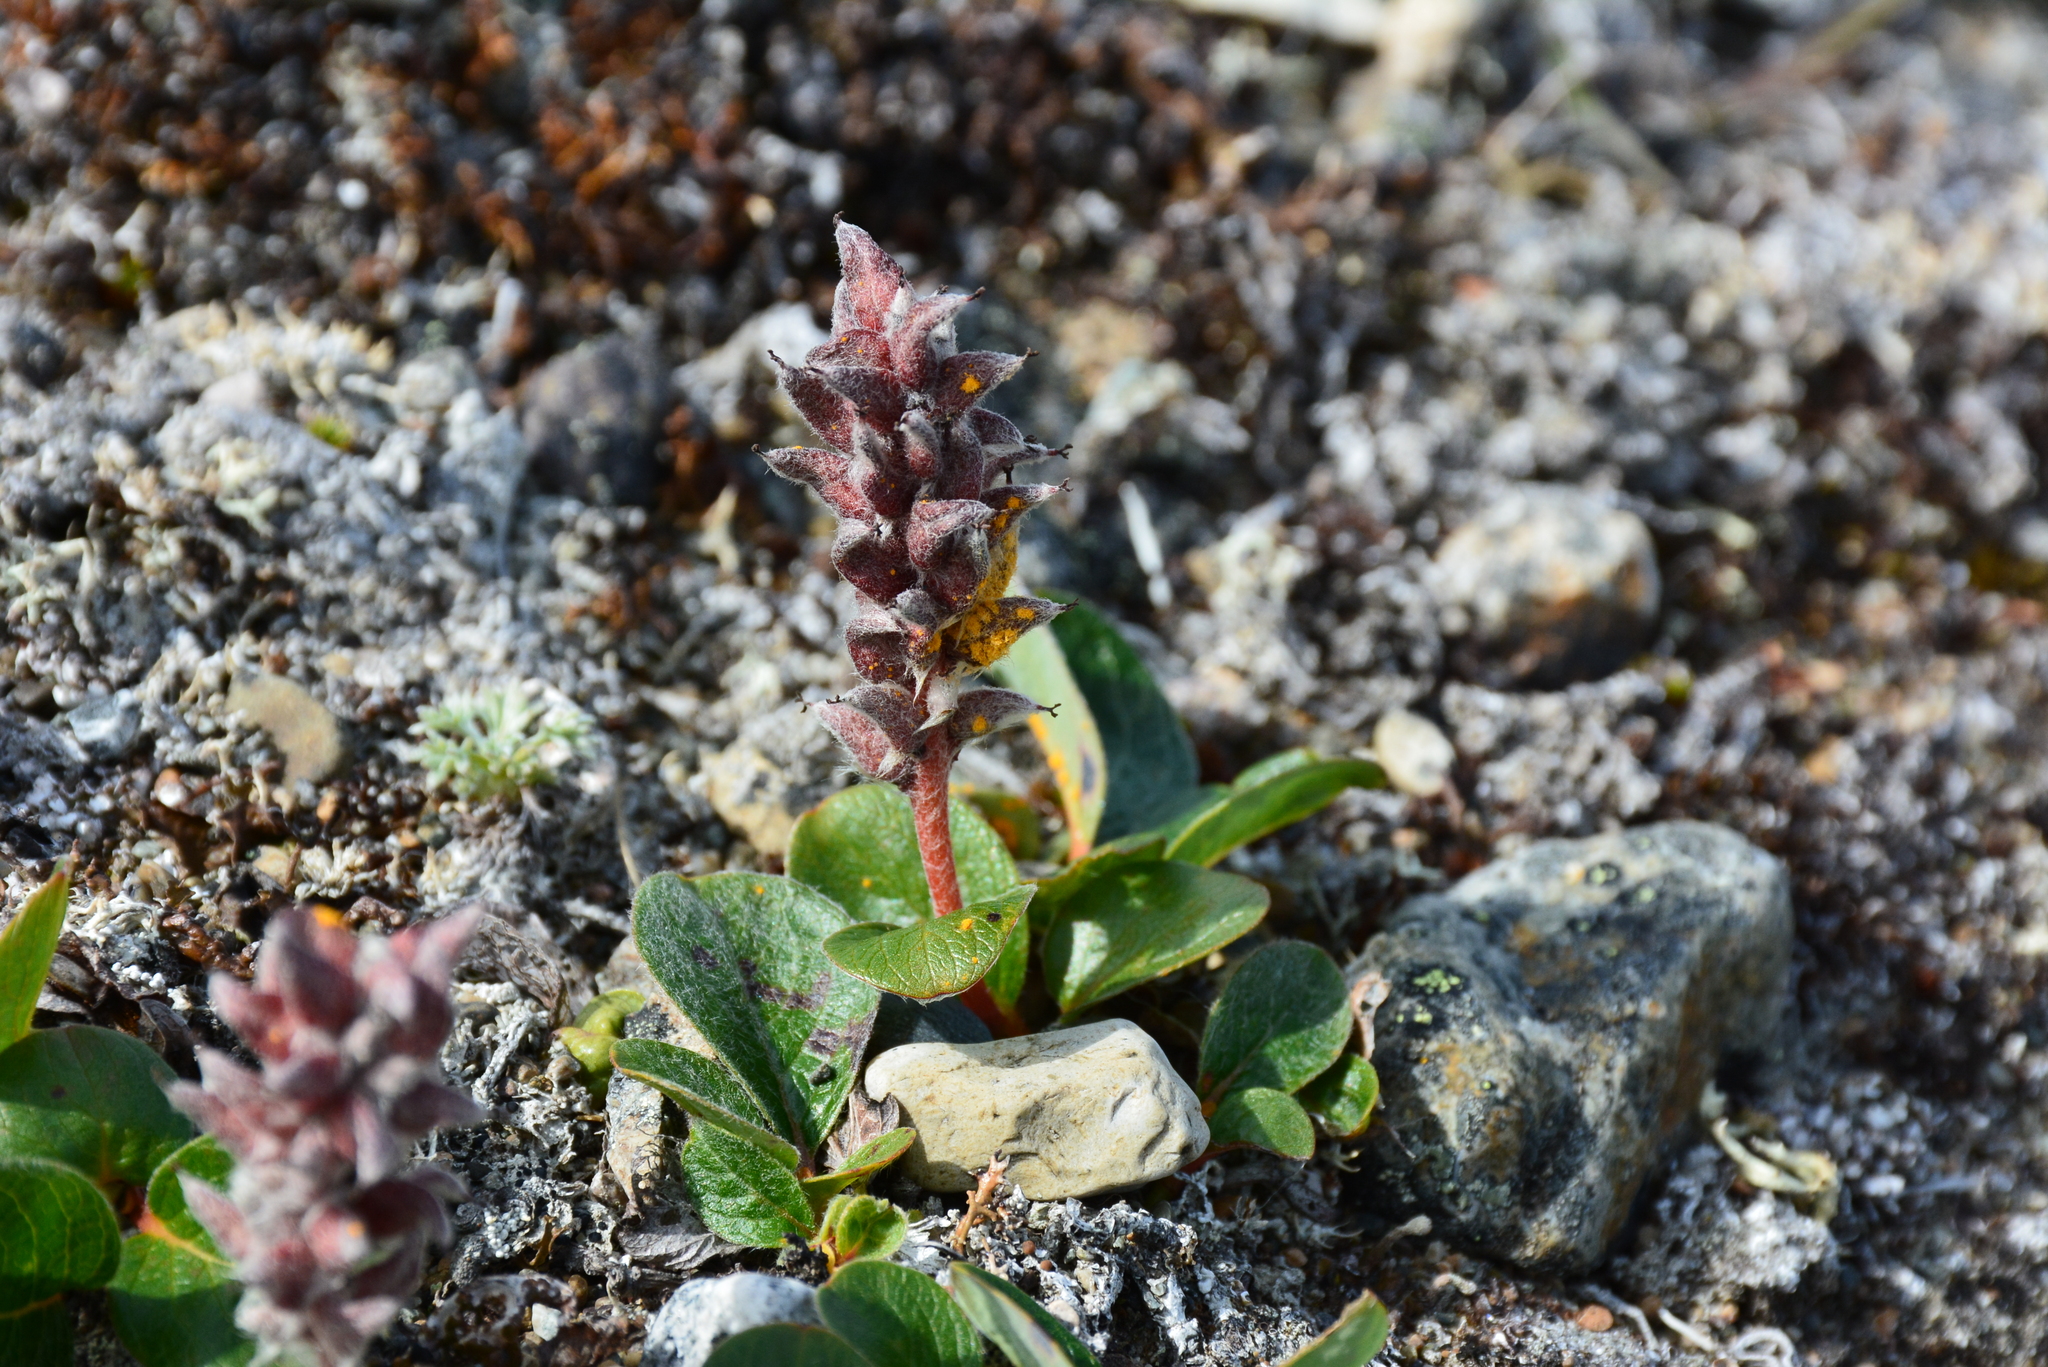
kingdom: Plantae
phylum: Tracheophyta
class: Magnoliopsida
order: Malpighiales
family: Salicaceae
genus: Salix
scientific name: Salix polaris
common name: Polar willow
